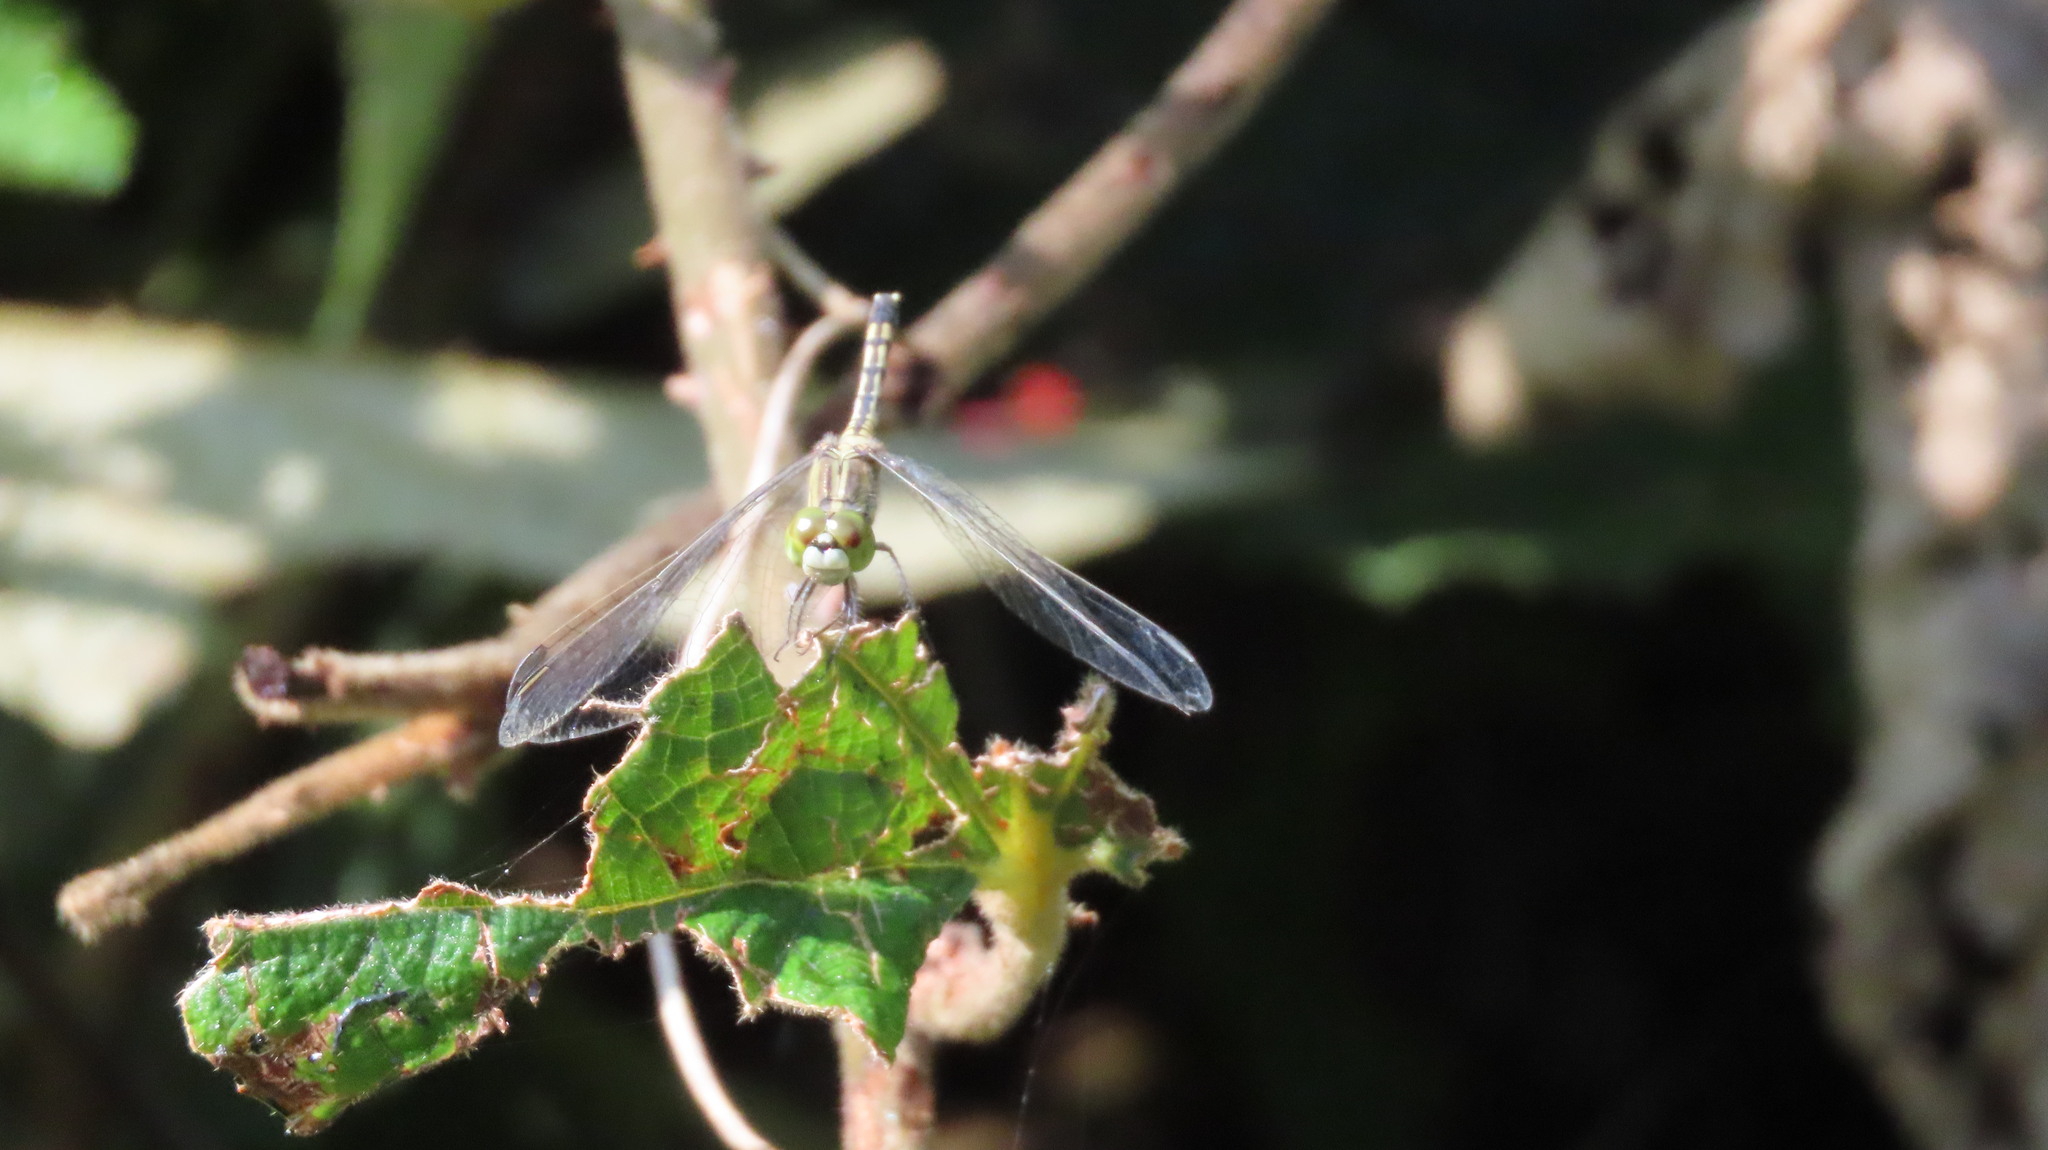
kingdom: Animalia
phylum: Arthropoda
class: Insecta
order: Odonata
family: Libellulidae
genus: Diplacodes
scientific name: Diplacodes trivialis
